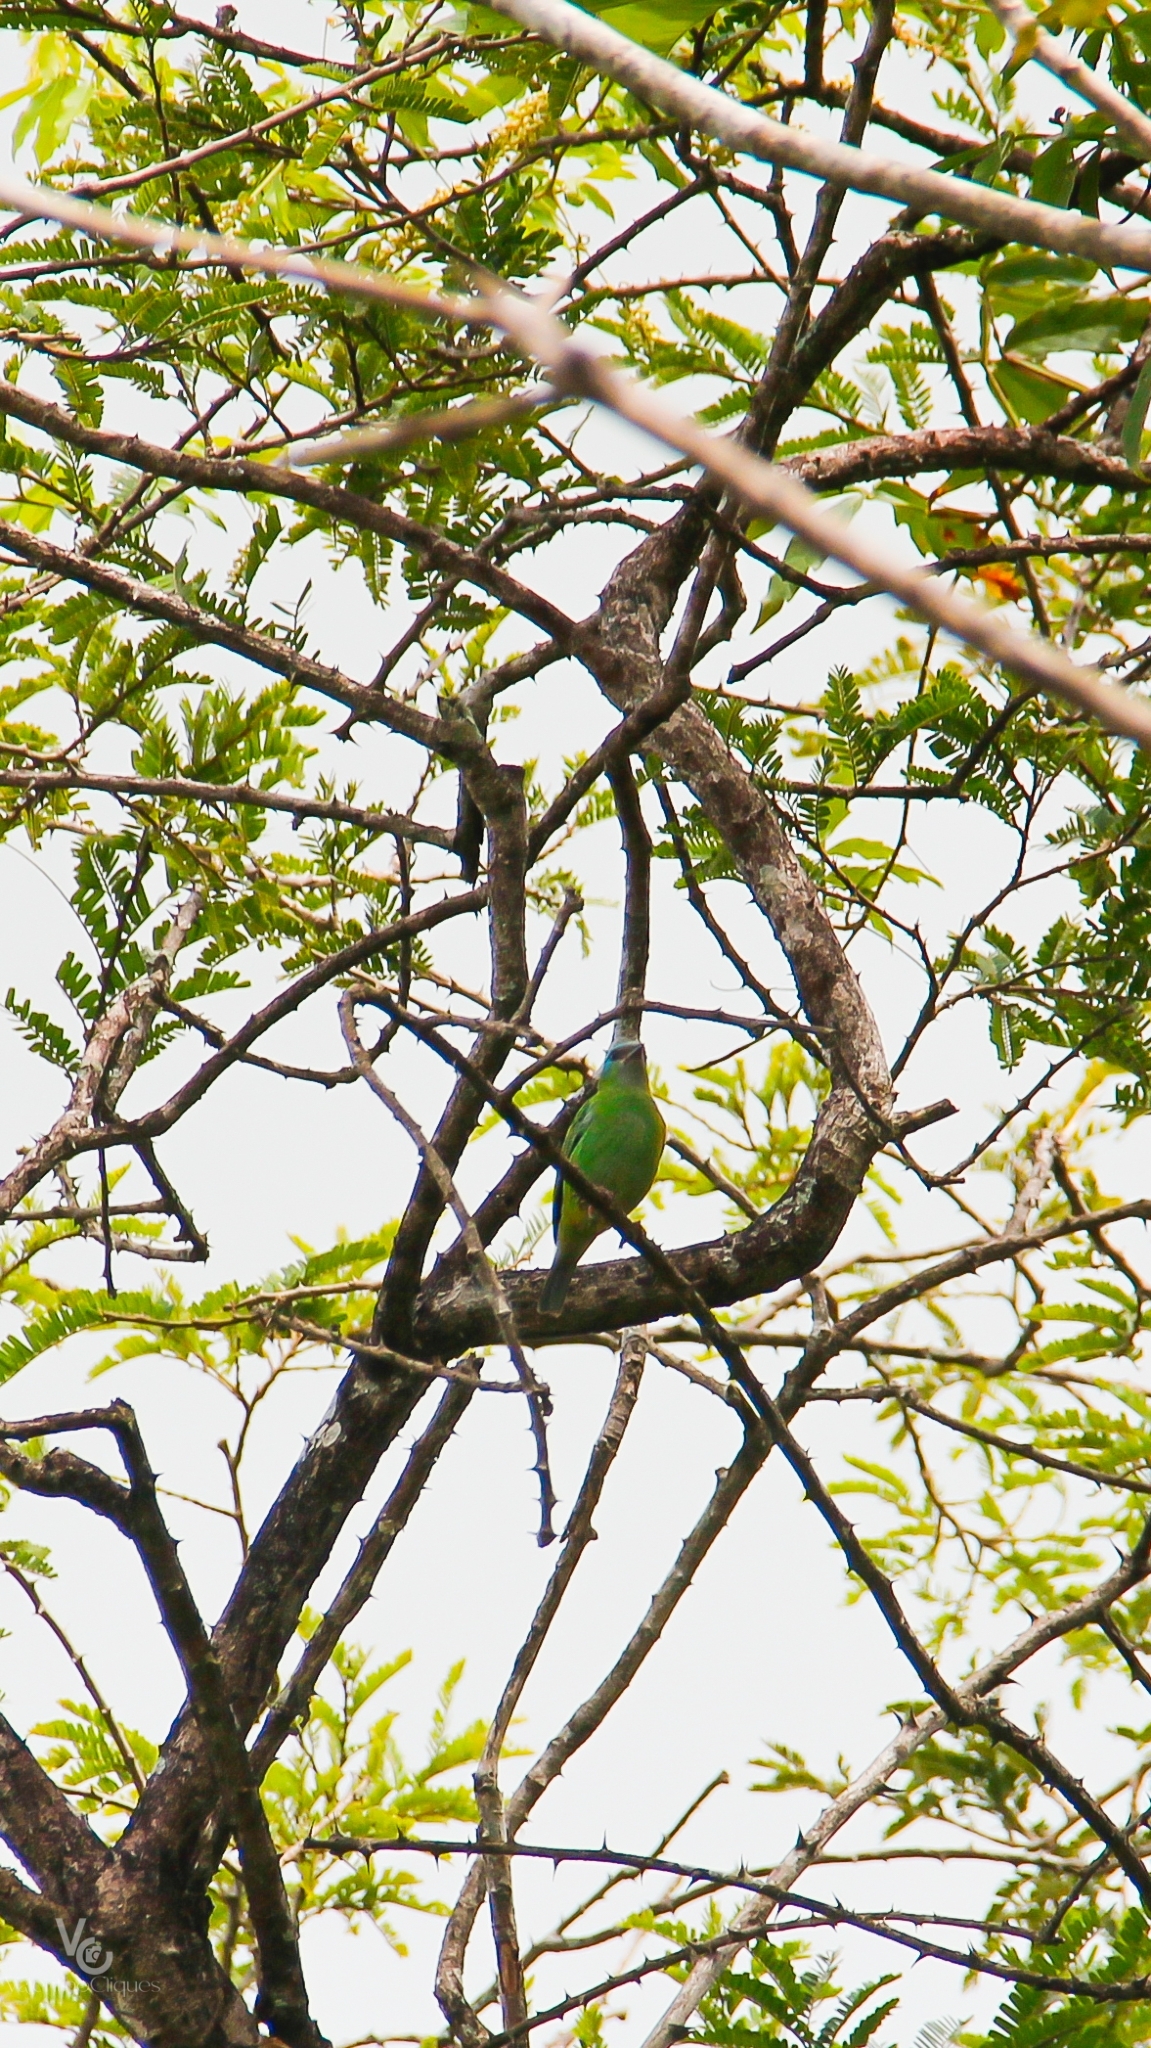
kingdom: Animalia
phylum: Chordata
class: Aves
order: Passeriformes
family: Thraupidae
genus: Dacnis
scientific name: Dacnis cayana
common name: Blue dacnis
